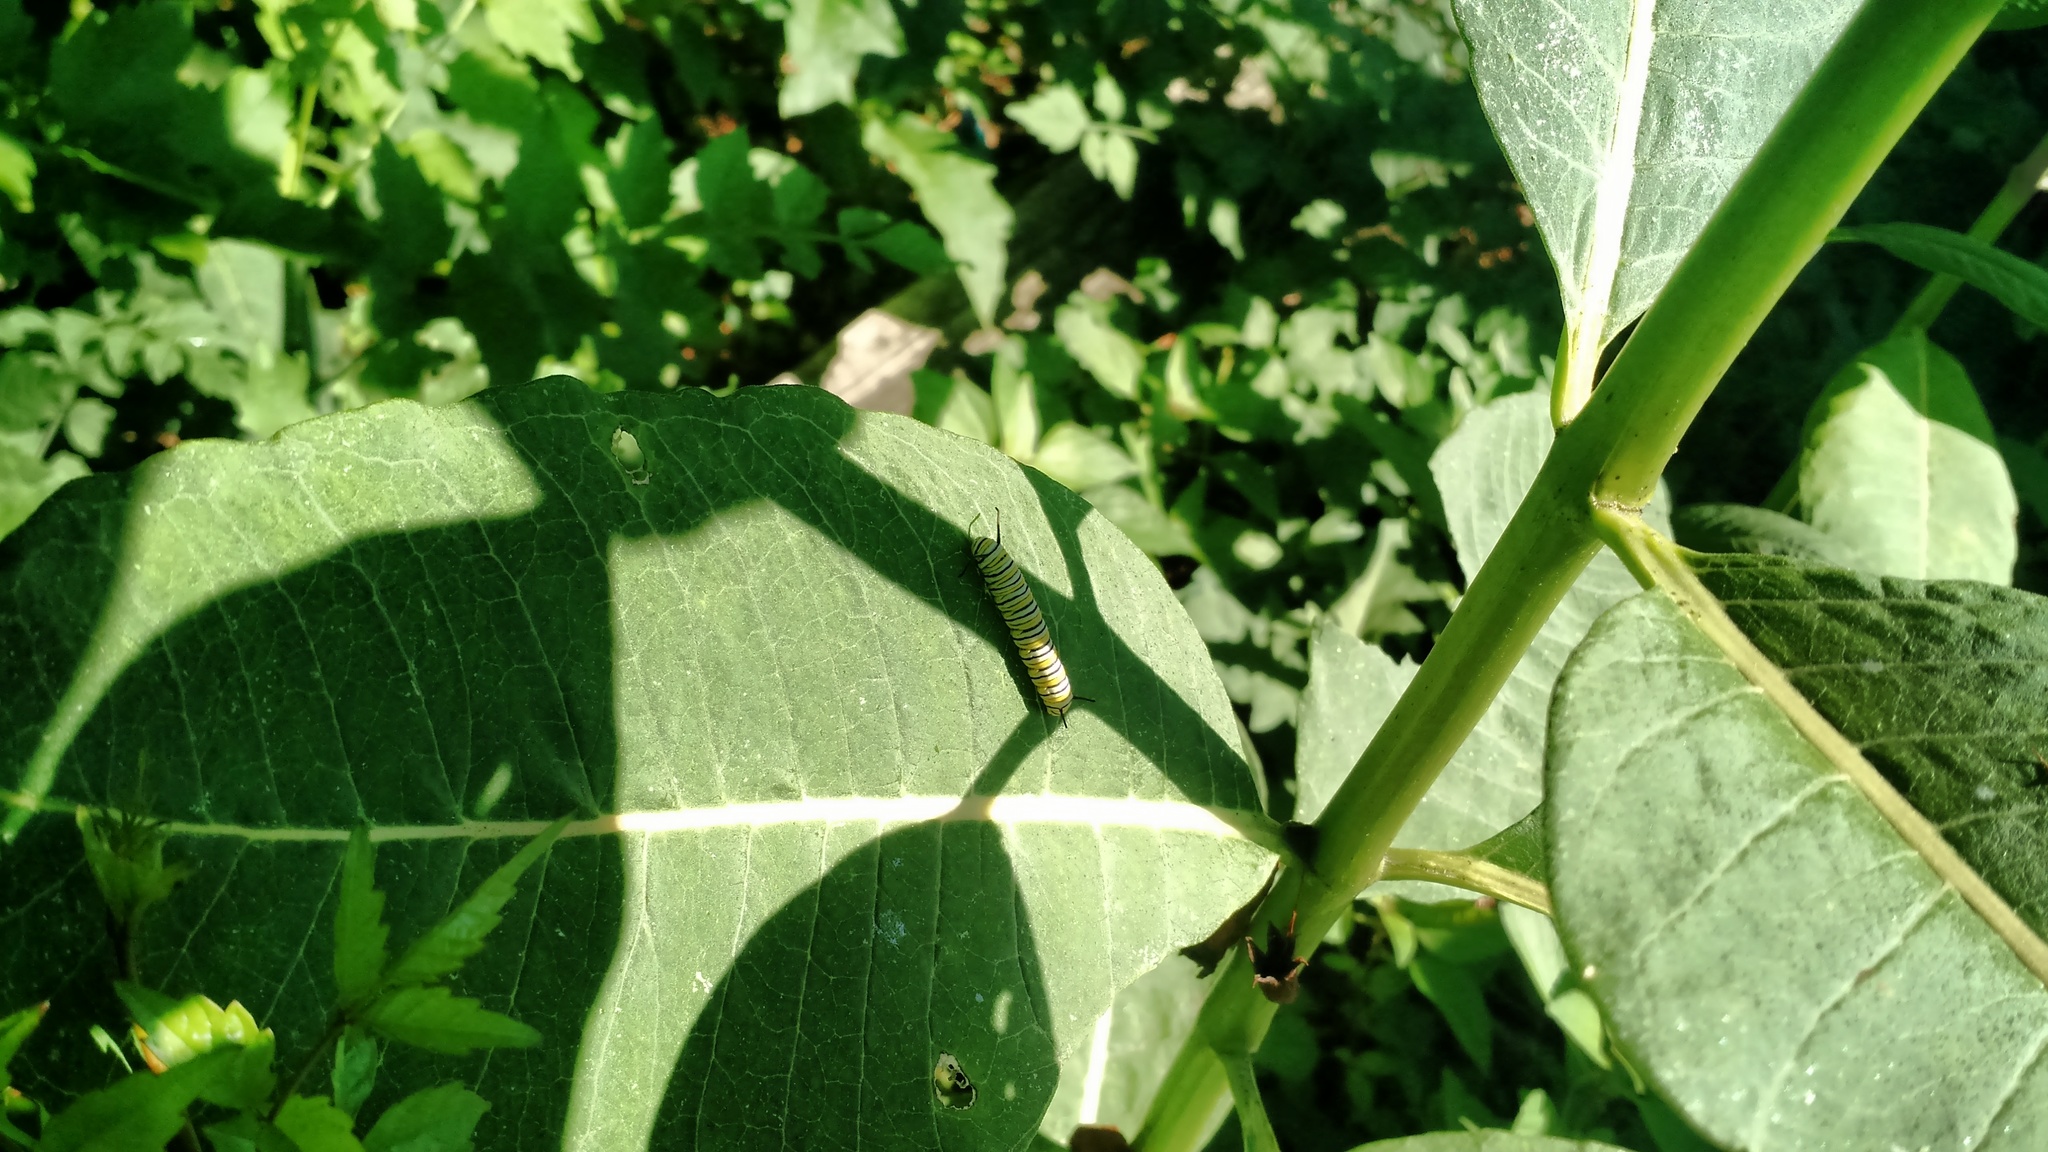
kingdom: Animalia
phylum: Arthropoda
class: Insecta
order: Lepidoptera
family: Nymphalidae
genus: Danaus
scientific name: Danaus plexippus
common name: Monarch
